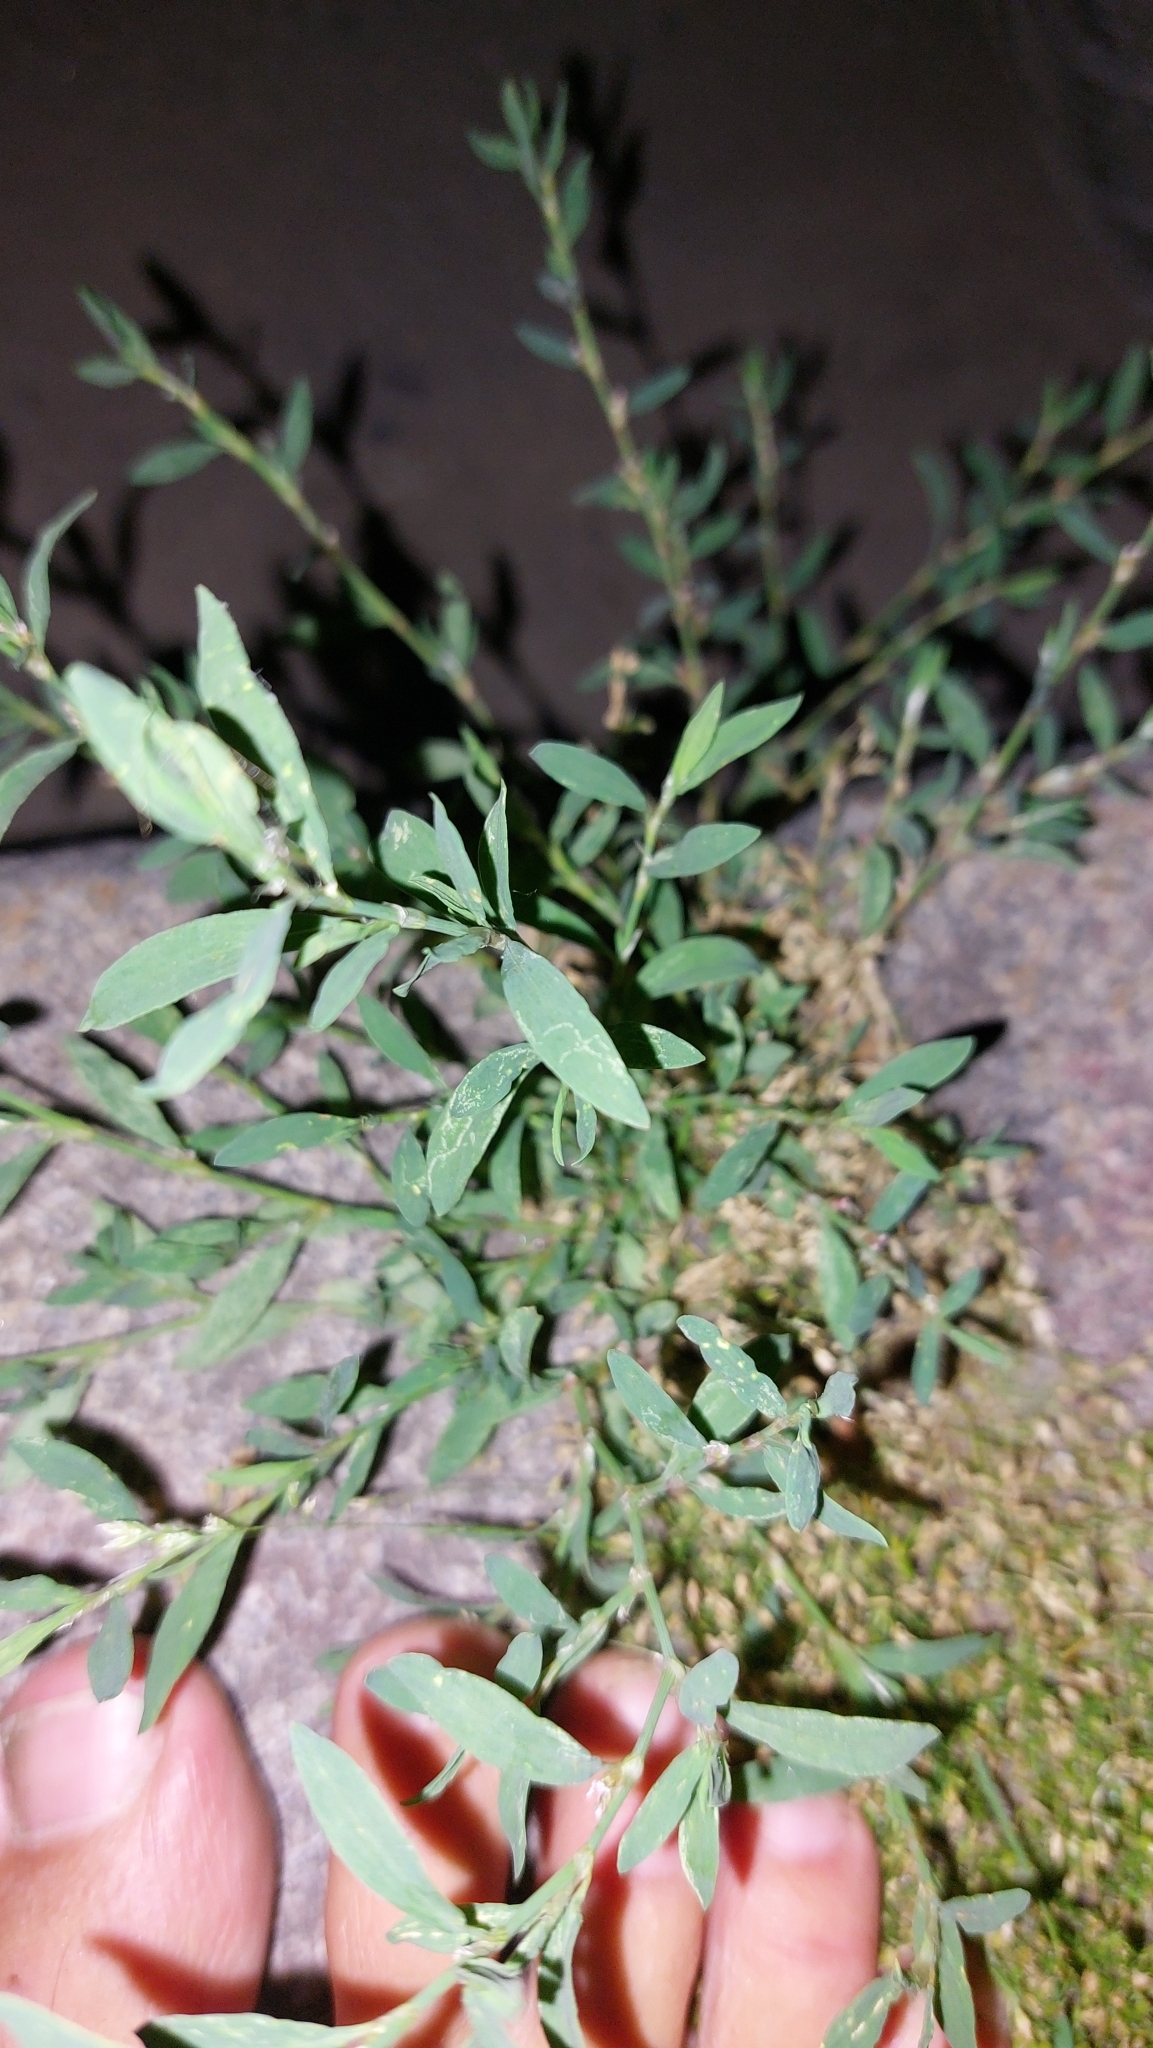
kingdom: Plantae
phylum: Tracheophyta
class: Magnoliopsida
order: Caryophyllales
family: Polygonaceae
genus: Polygonum
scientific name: Polygonum aviculare
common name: Prostrate knotweed
